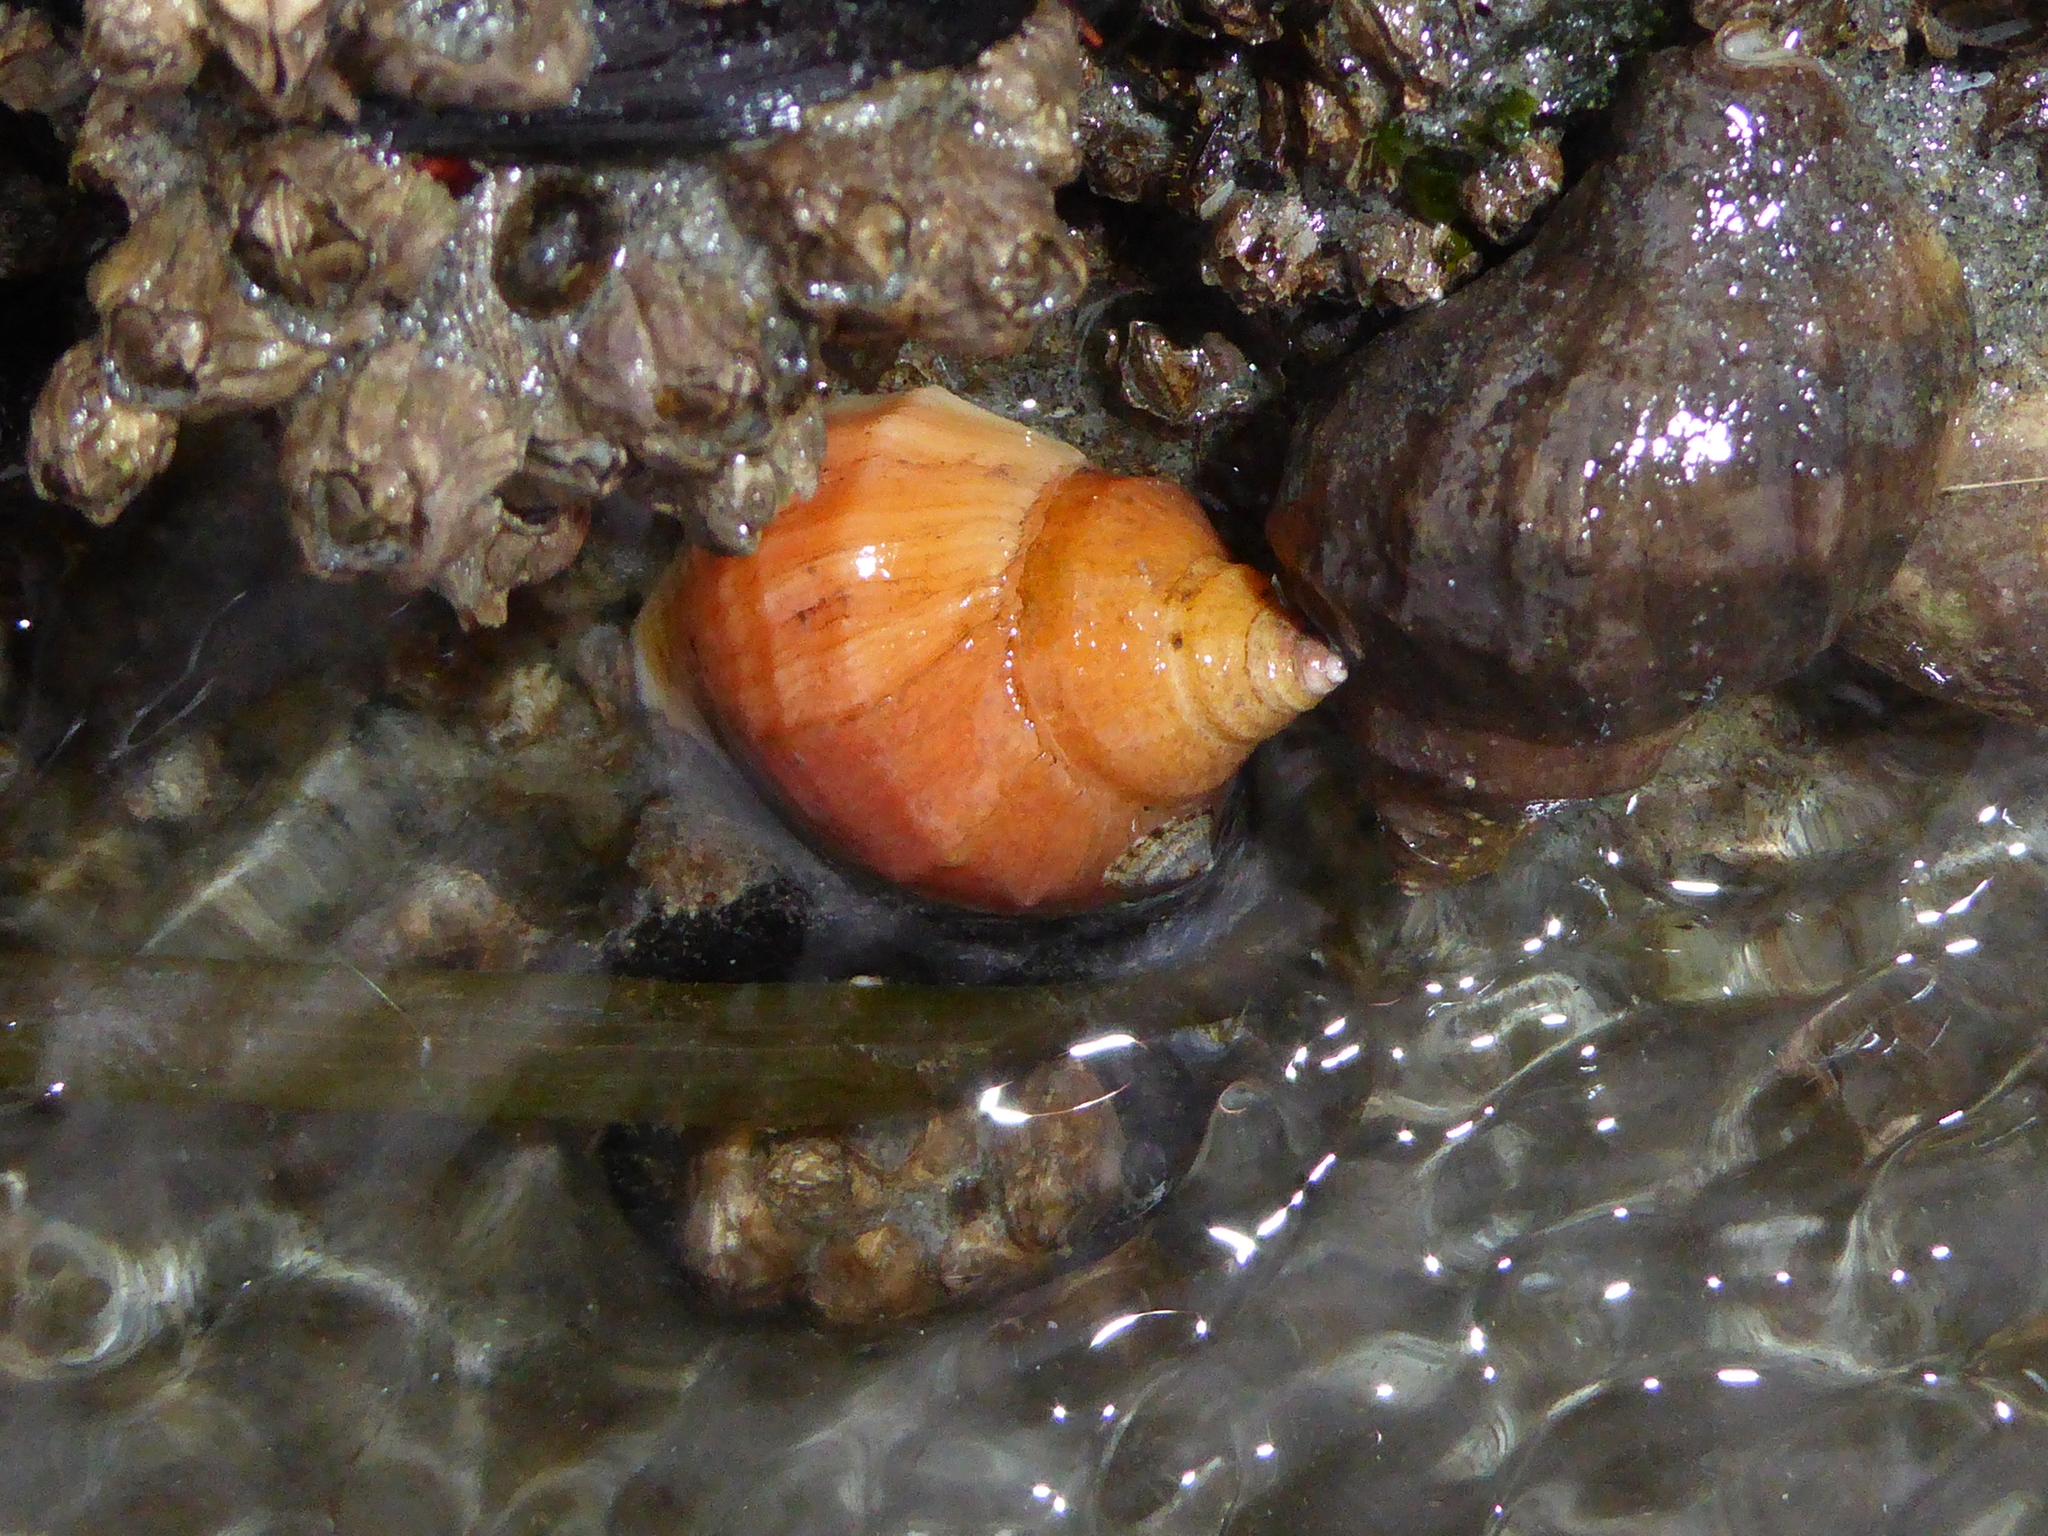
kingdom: Animalia
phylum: Mollusca
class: Gastropoda
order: Neogastropoda
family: Muricidae
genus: Nucella
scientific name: Nucella lamellosa
